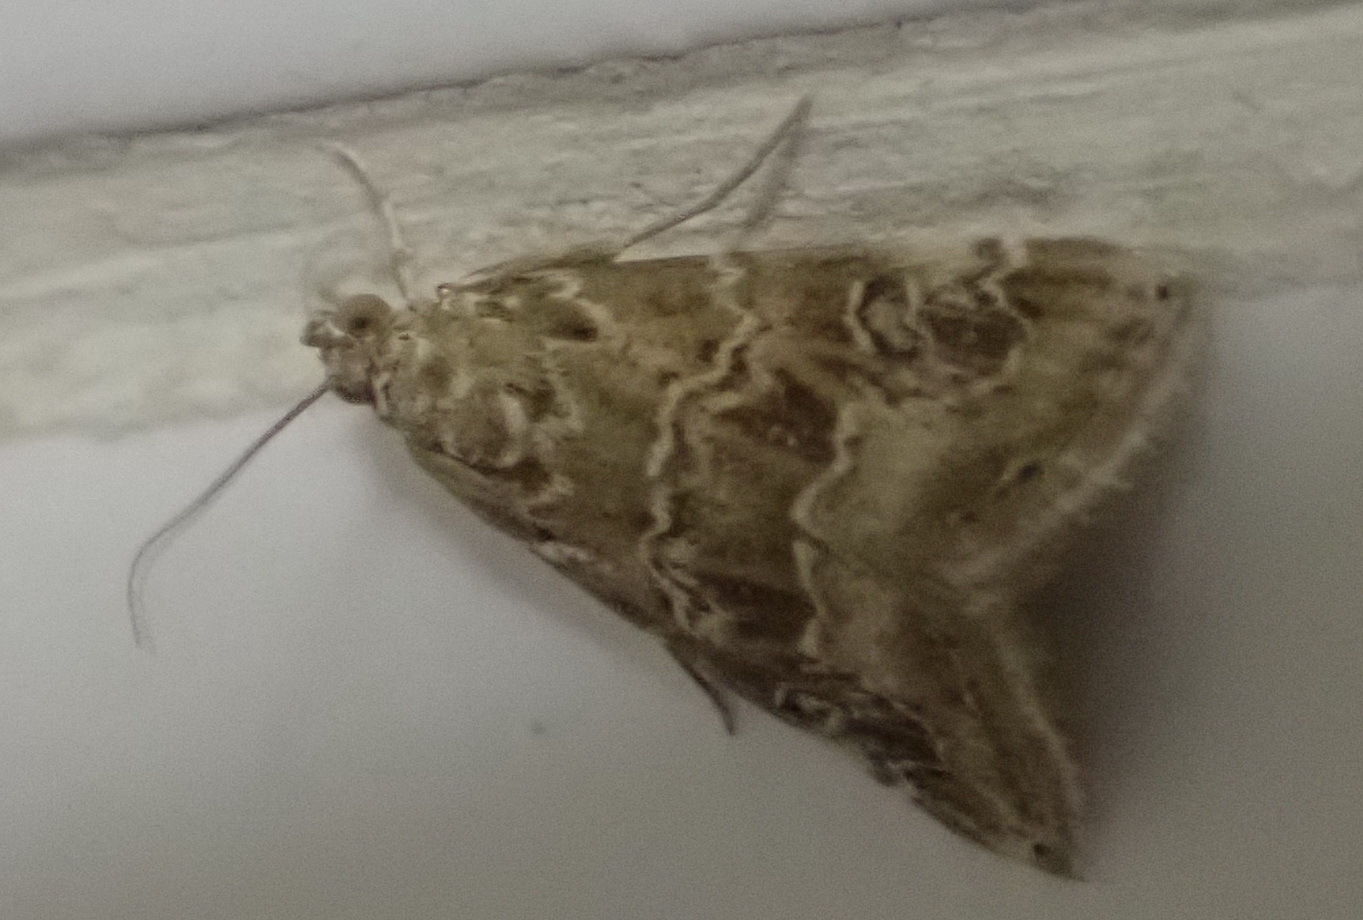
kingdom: Animalia
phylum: Arthropoda
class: Insecta
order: Lepidoptera
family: Crambidae
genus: Hellula
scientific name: Hellula undalis
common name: Cabbage webworm
